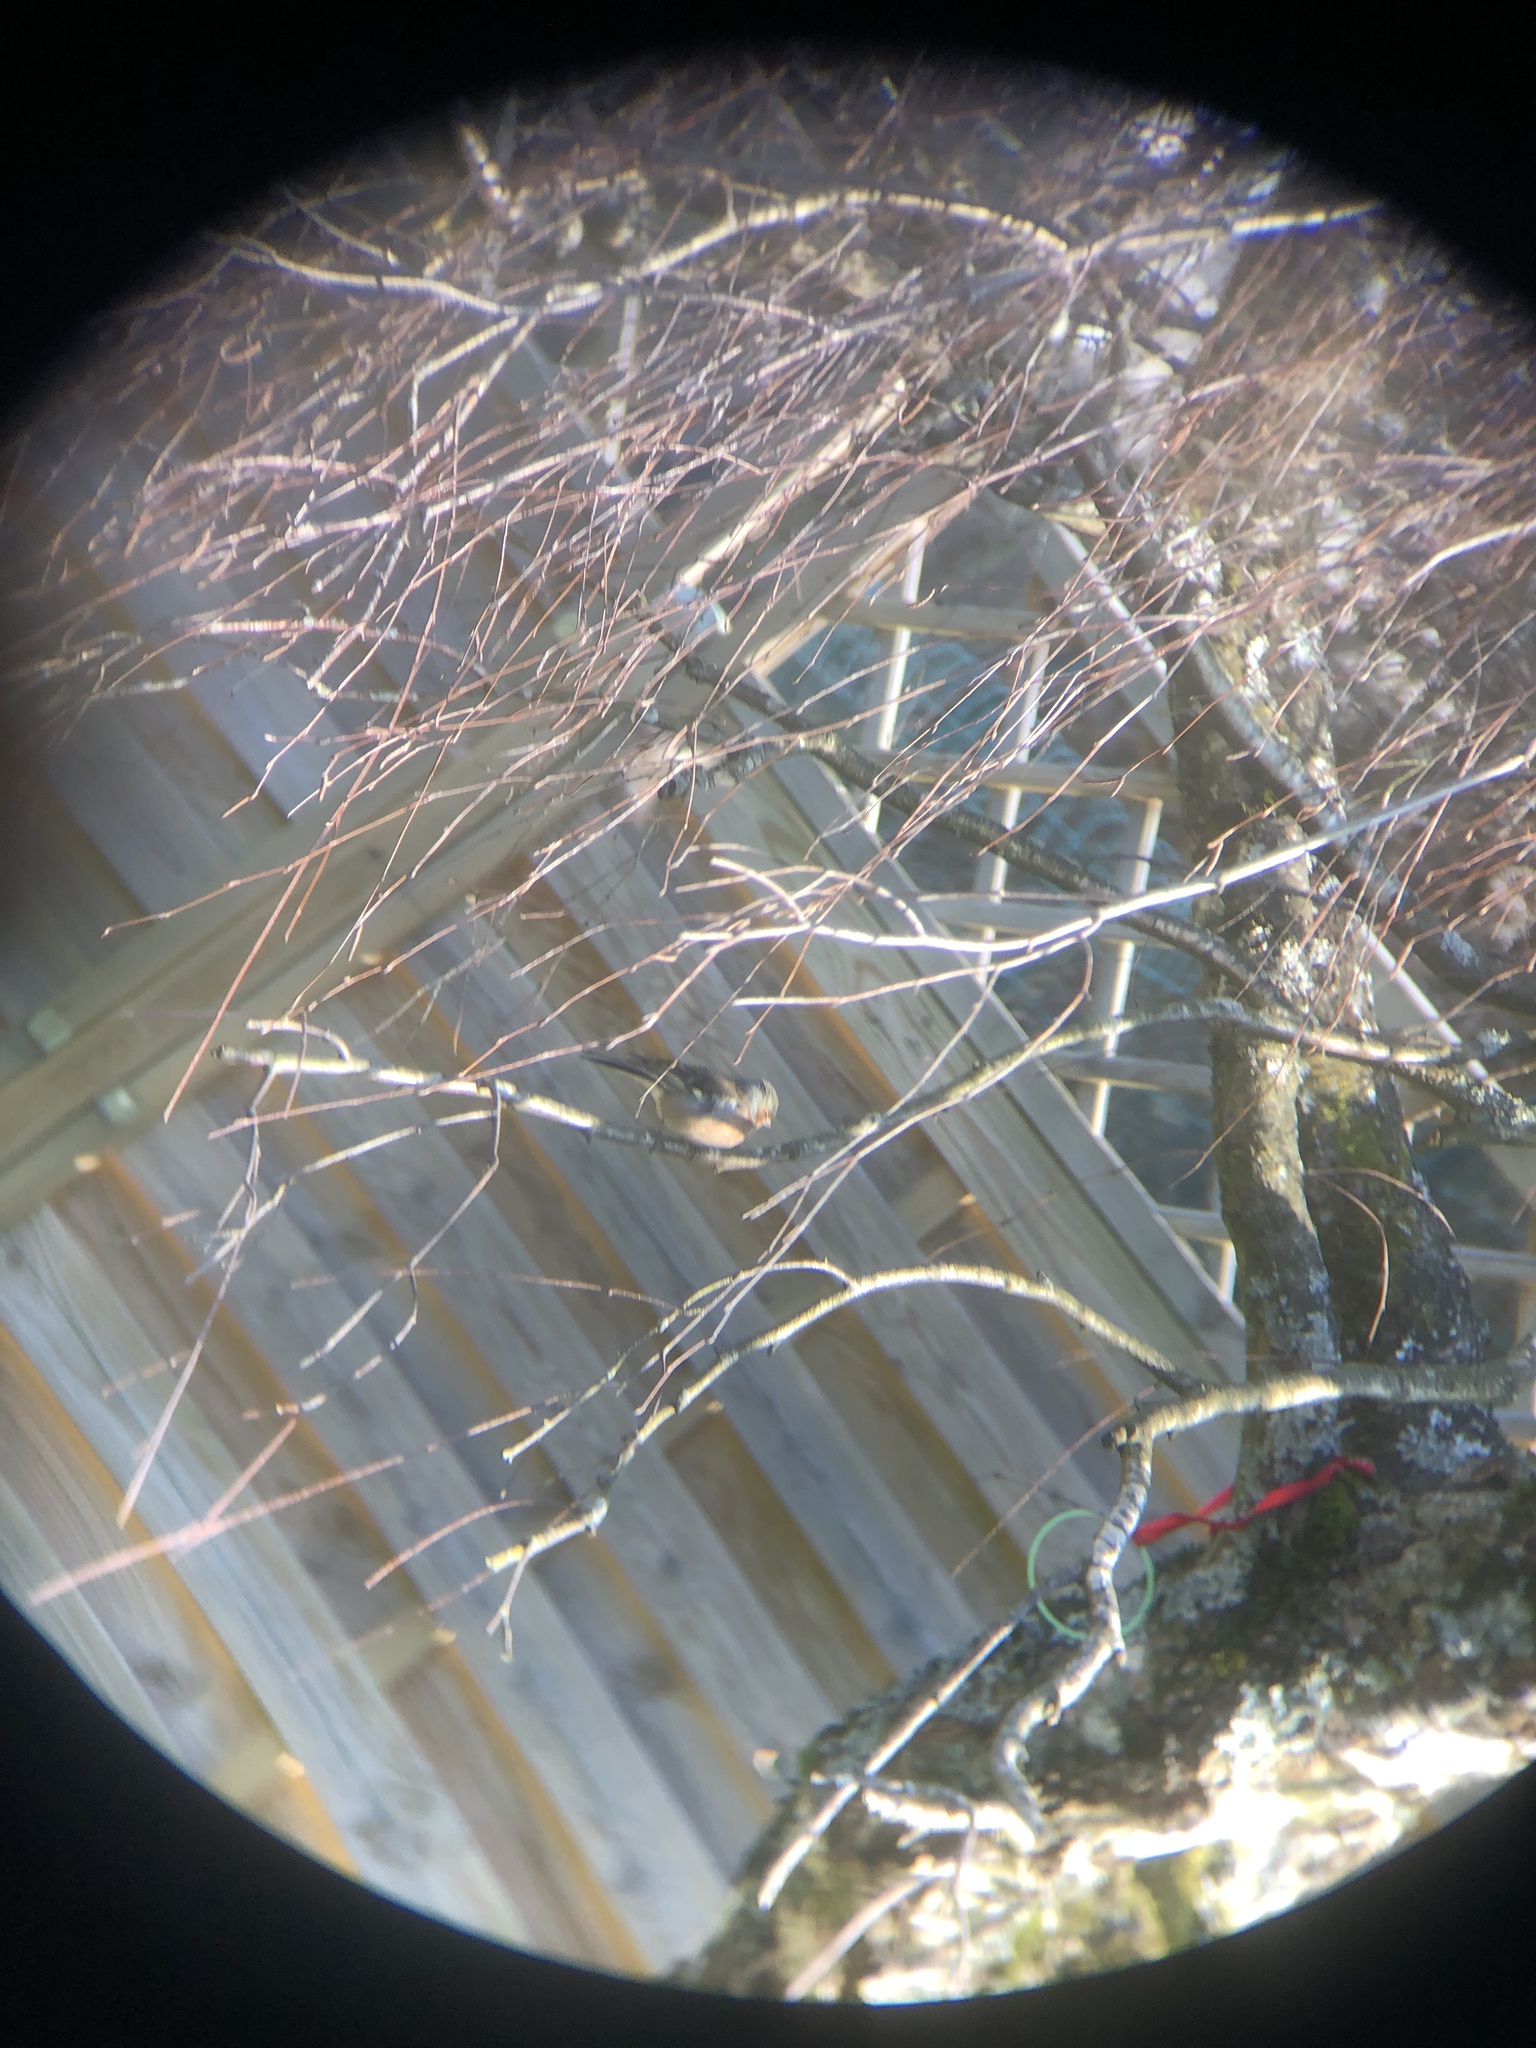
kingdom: Animalia
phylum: Chordata
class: Aves
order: Passeriformes
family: Fringillidae
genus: Fringilla
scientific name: Fringilla coelebs
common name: Common chaffinch
